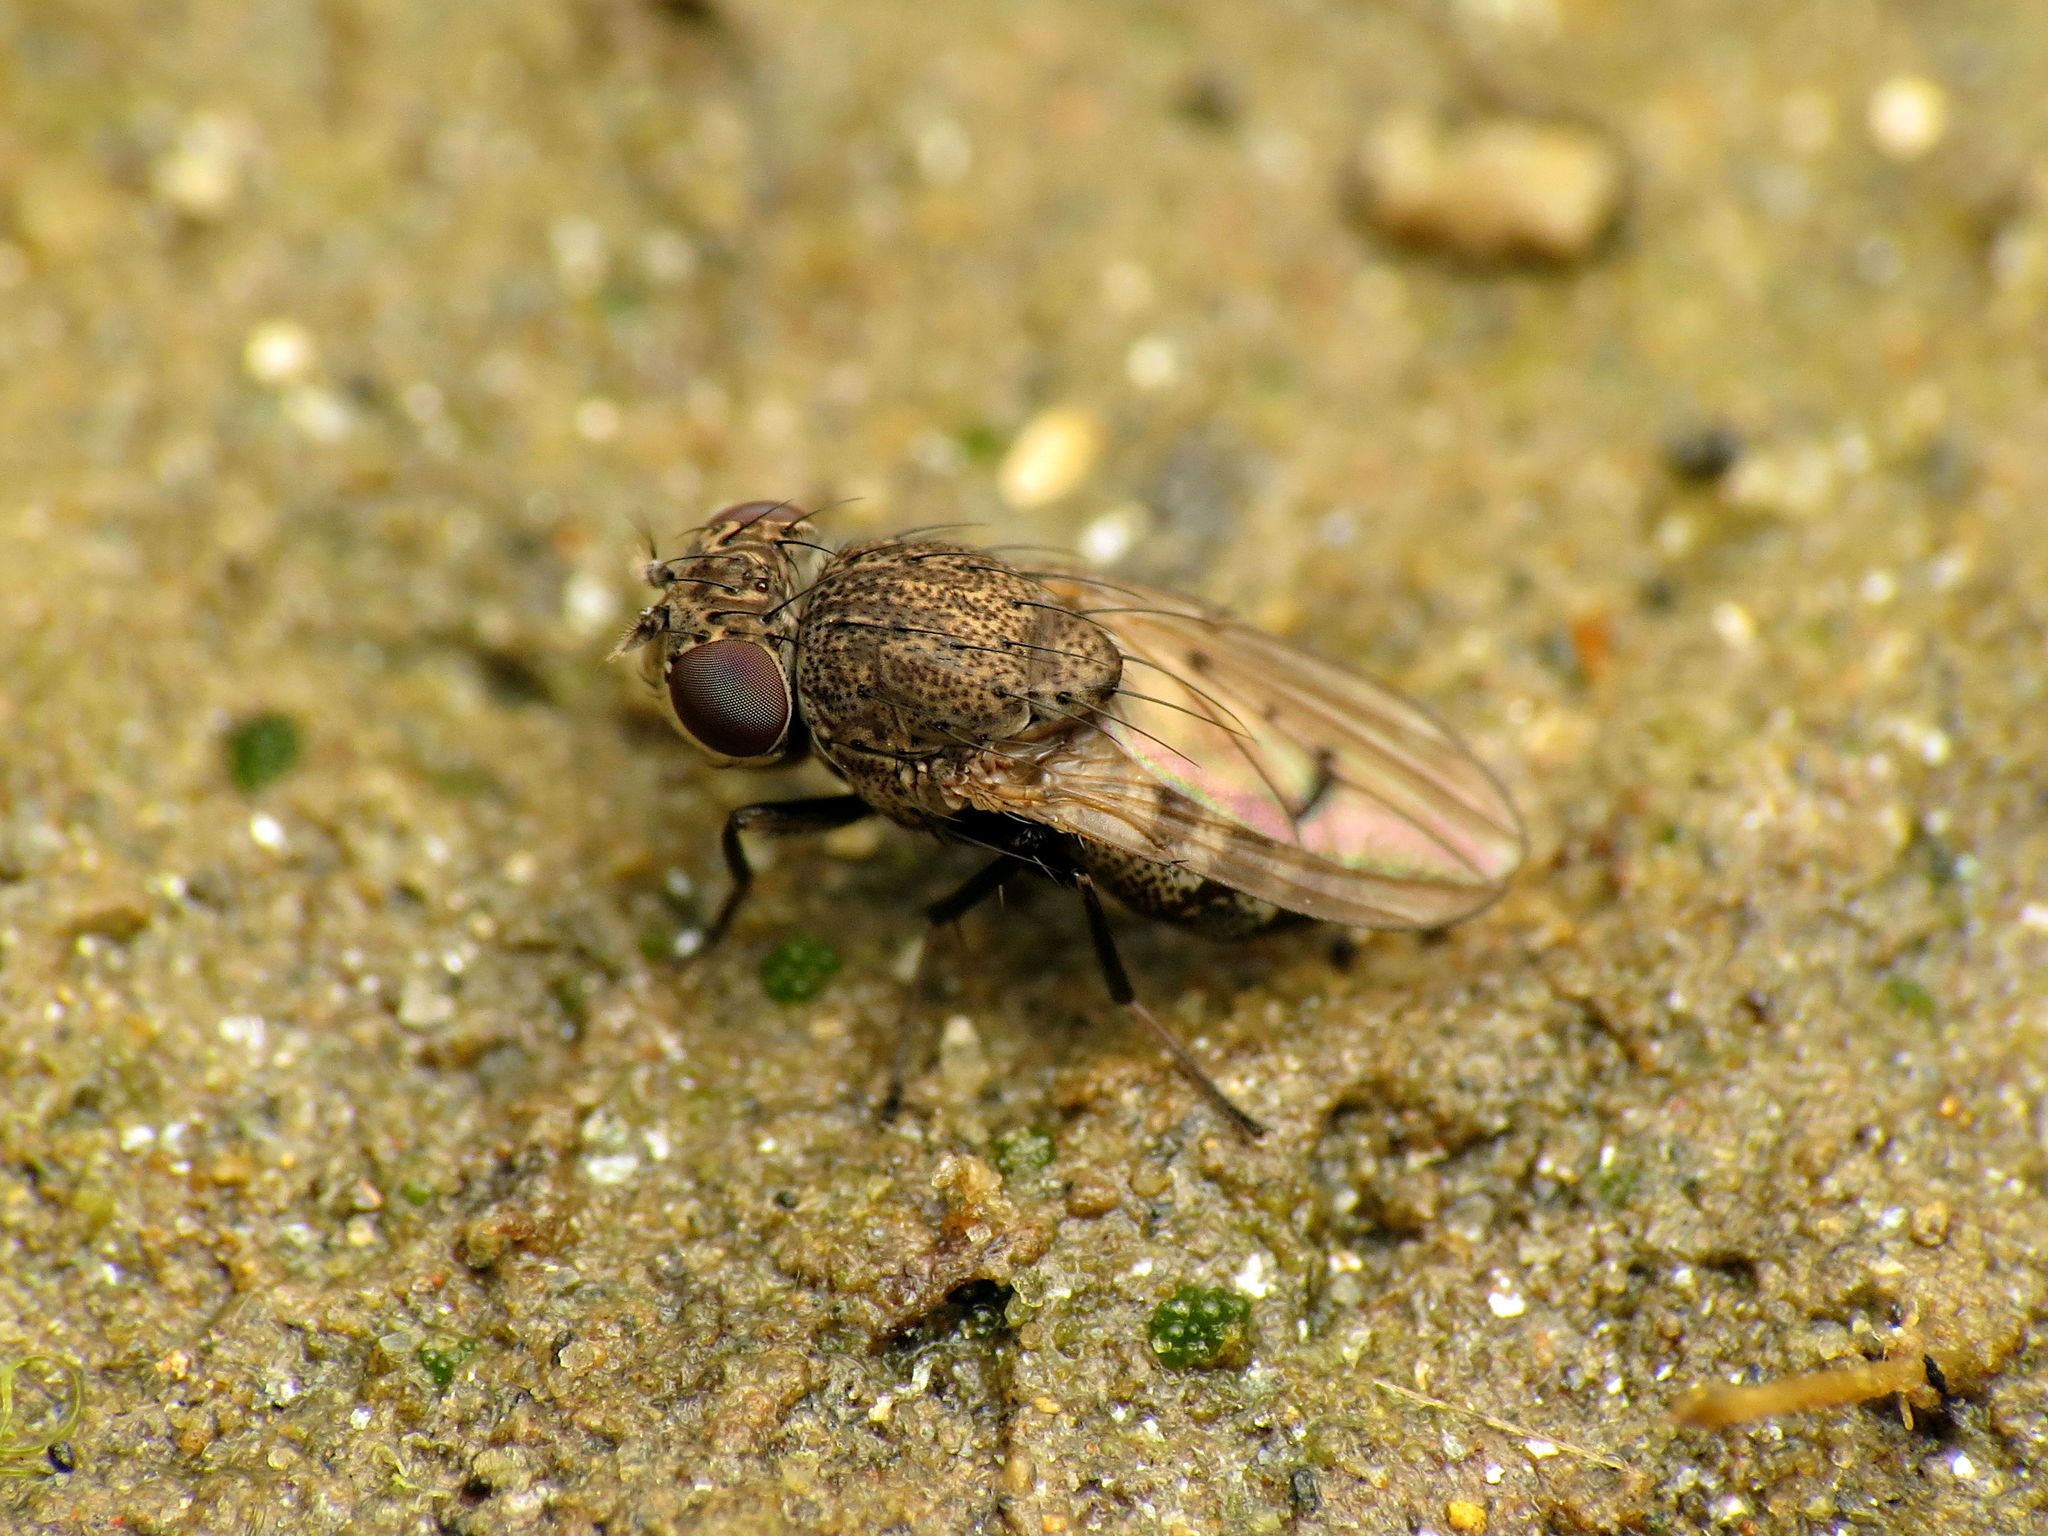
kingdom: Animalia
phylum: Arthropoda
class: Insecta
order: Diptera
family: Ephydridae
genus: Paralimna
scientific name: Paralimna punctipennis
